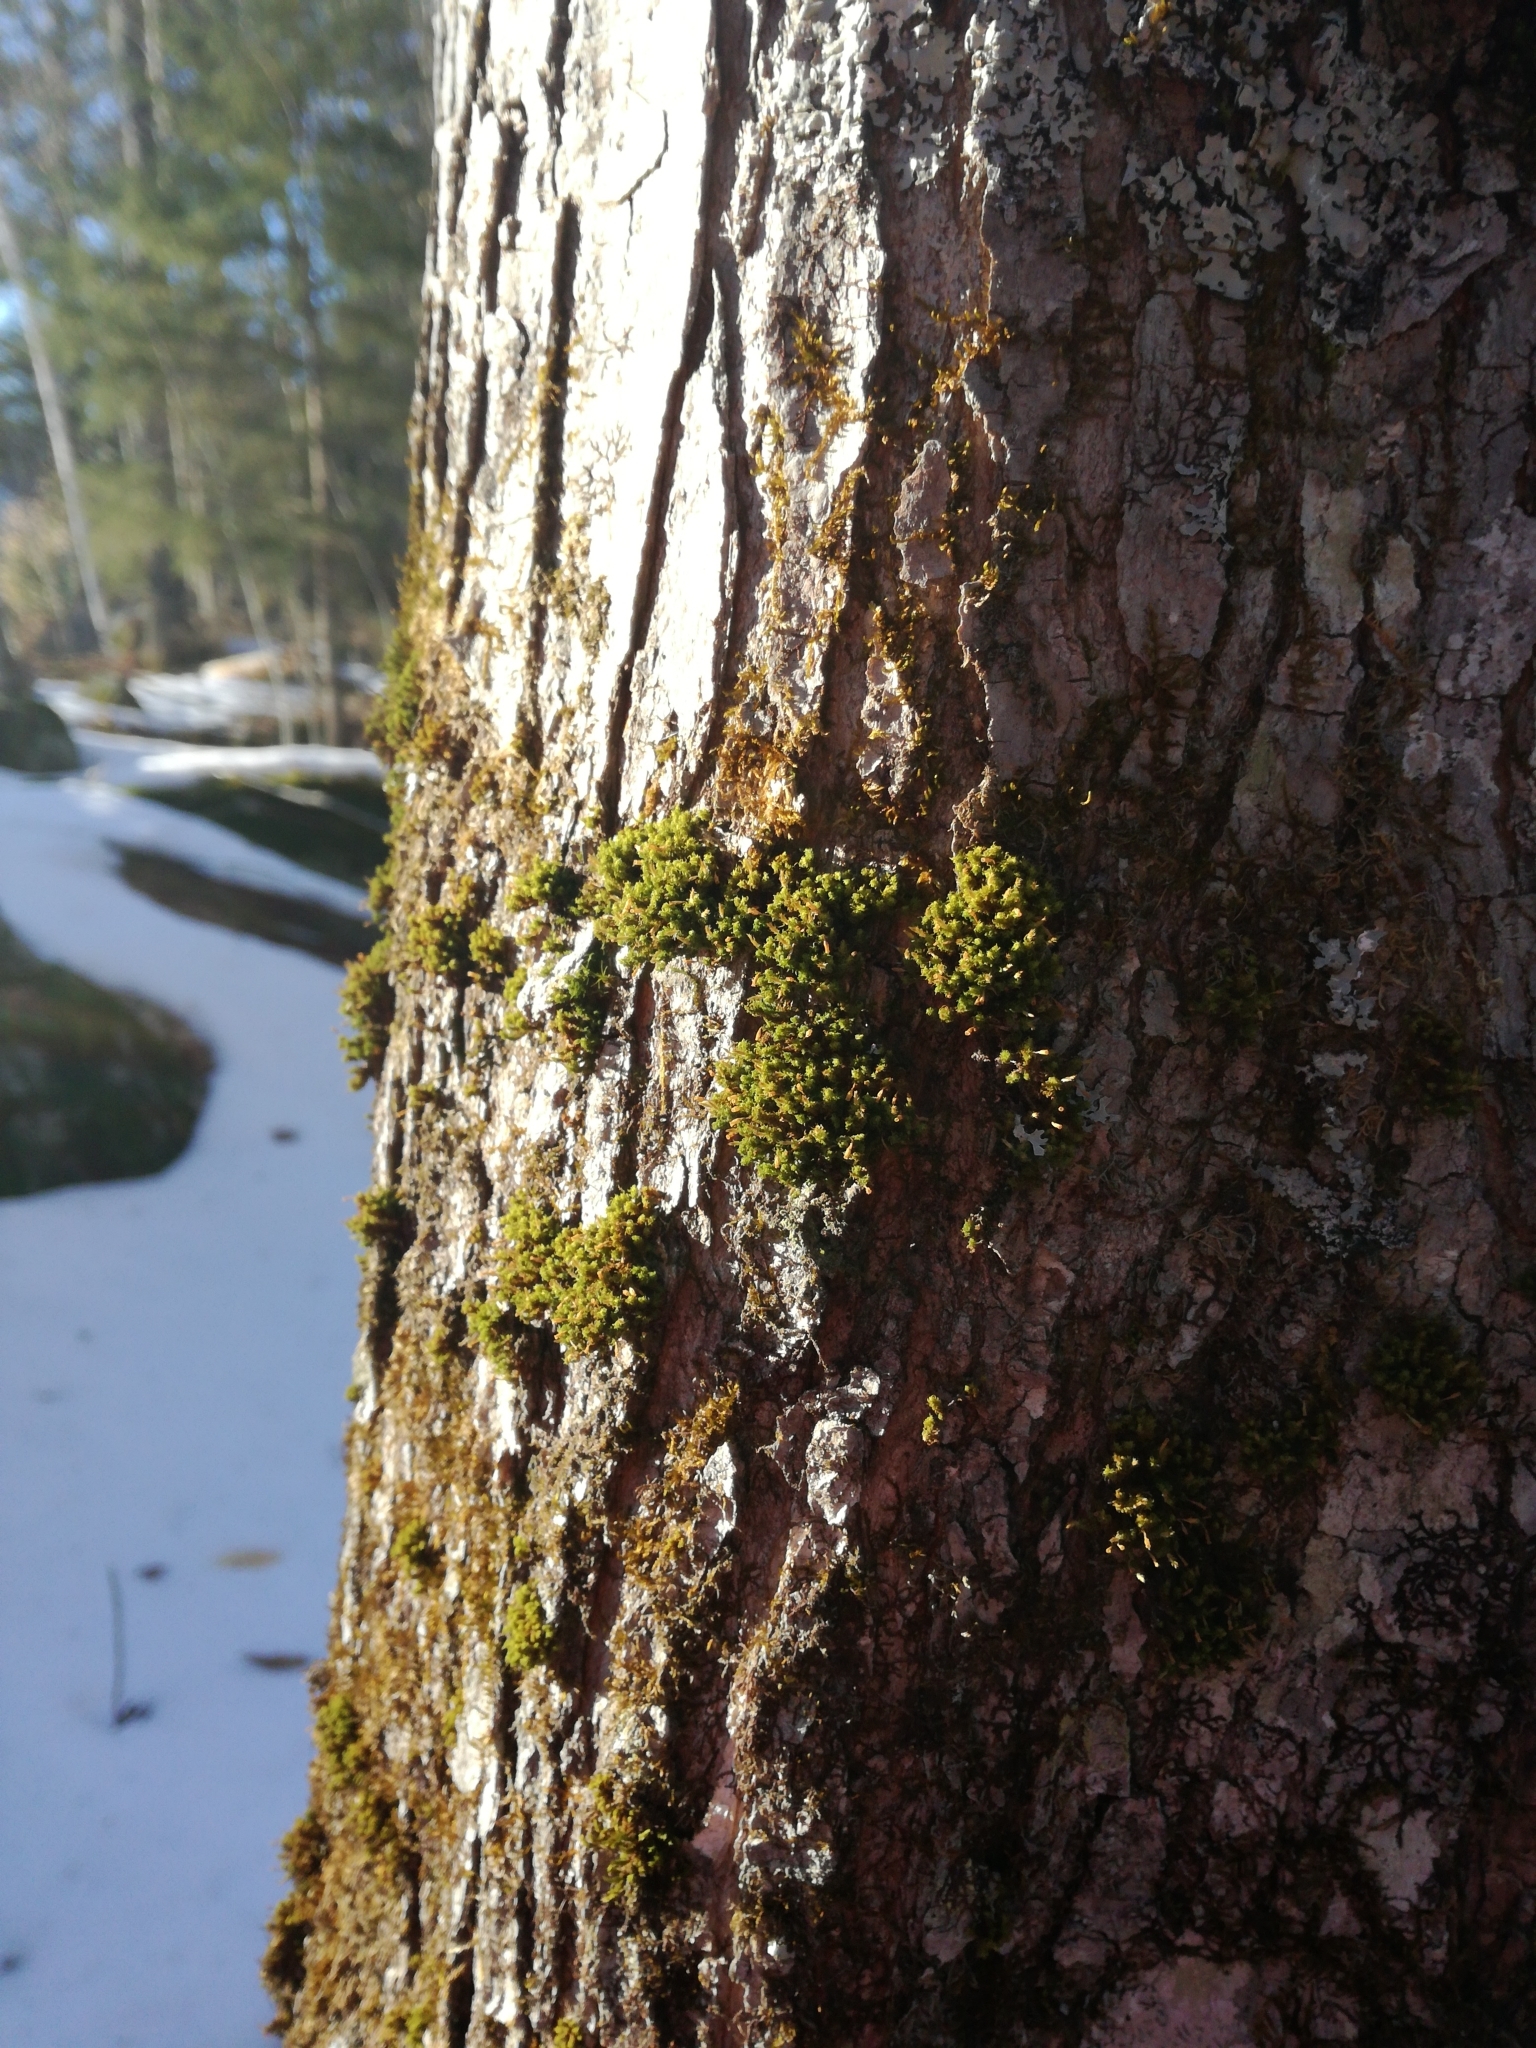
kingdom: Plantae
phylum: Bryophyta
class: Bryopsida
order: Orthotrichales
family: Orthotrichaceae
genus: Ulota
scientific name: Ulota crispa
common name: Crisped pincushion moss
